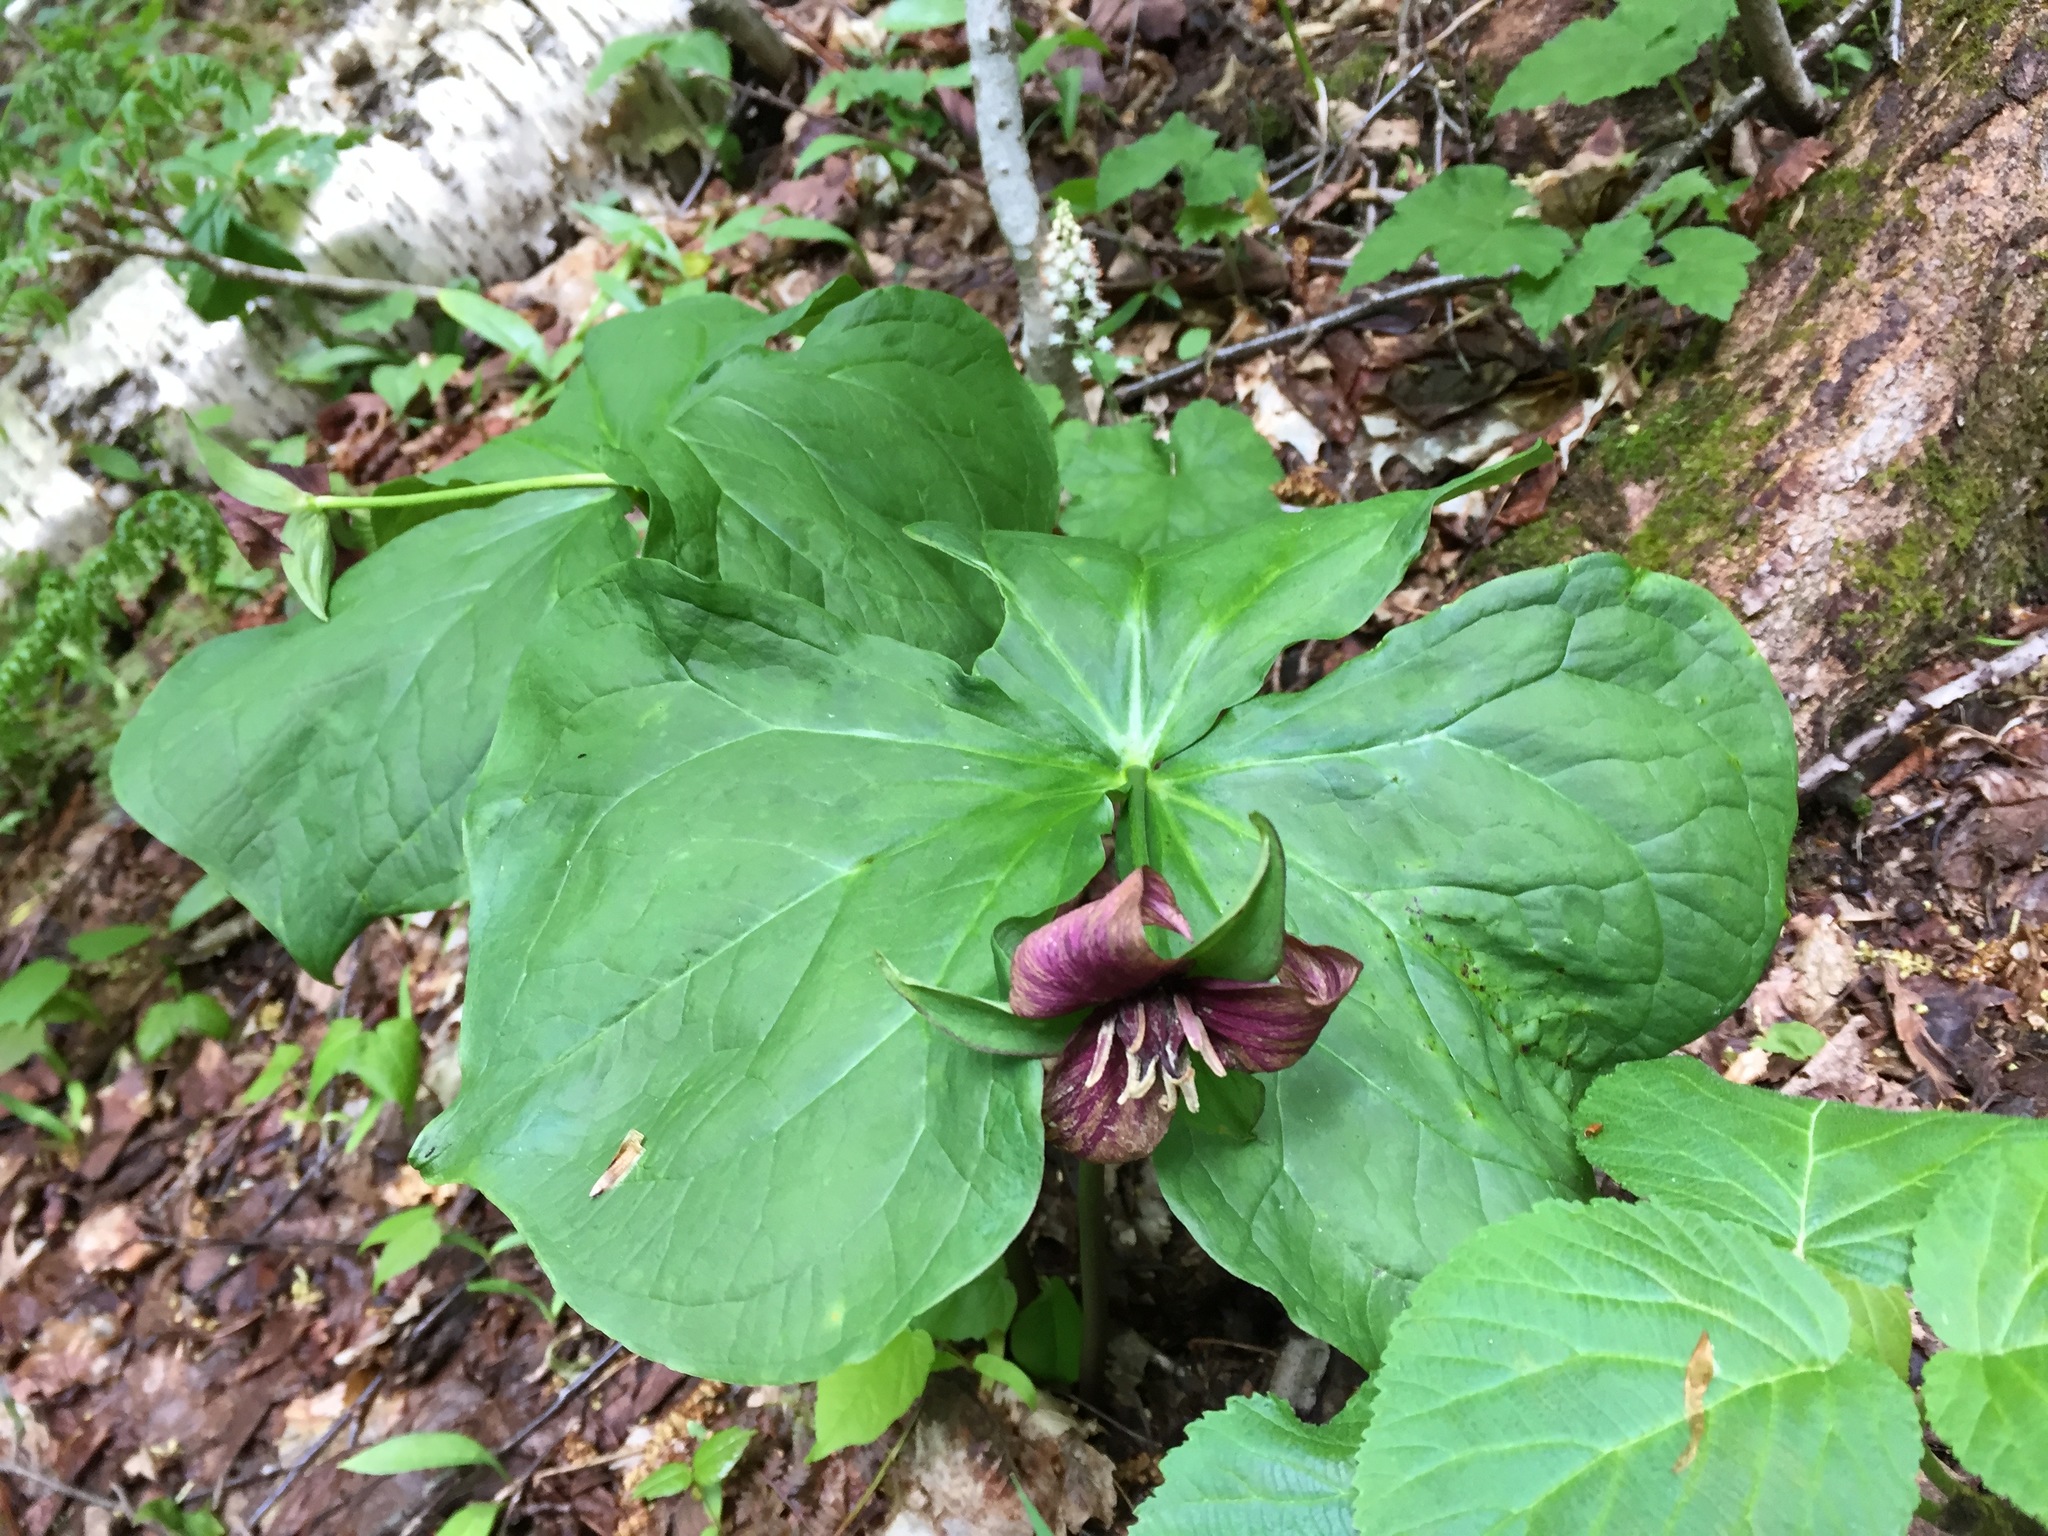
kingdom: Plantae
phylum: Tracheophyta
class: Liliopsida
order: Liliales
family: Melanthiaceae
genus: Trillium
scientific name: Trillium erectum
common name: Purple trillium
